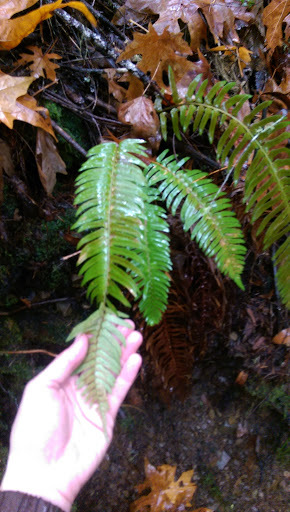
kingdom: Plantae
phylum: Tracheophyta
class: Polypodiopsida
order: Polypodiales
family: Dryopteridaceae
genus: Polystichum
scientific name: Polystichum munitum
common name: Western sword-fern
